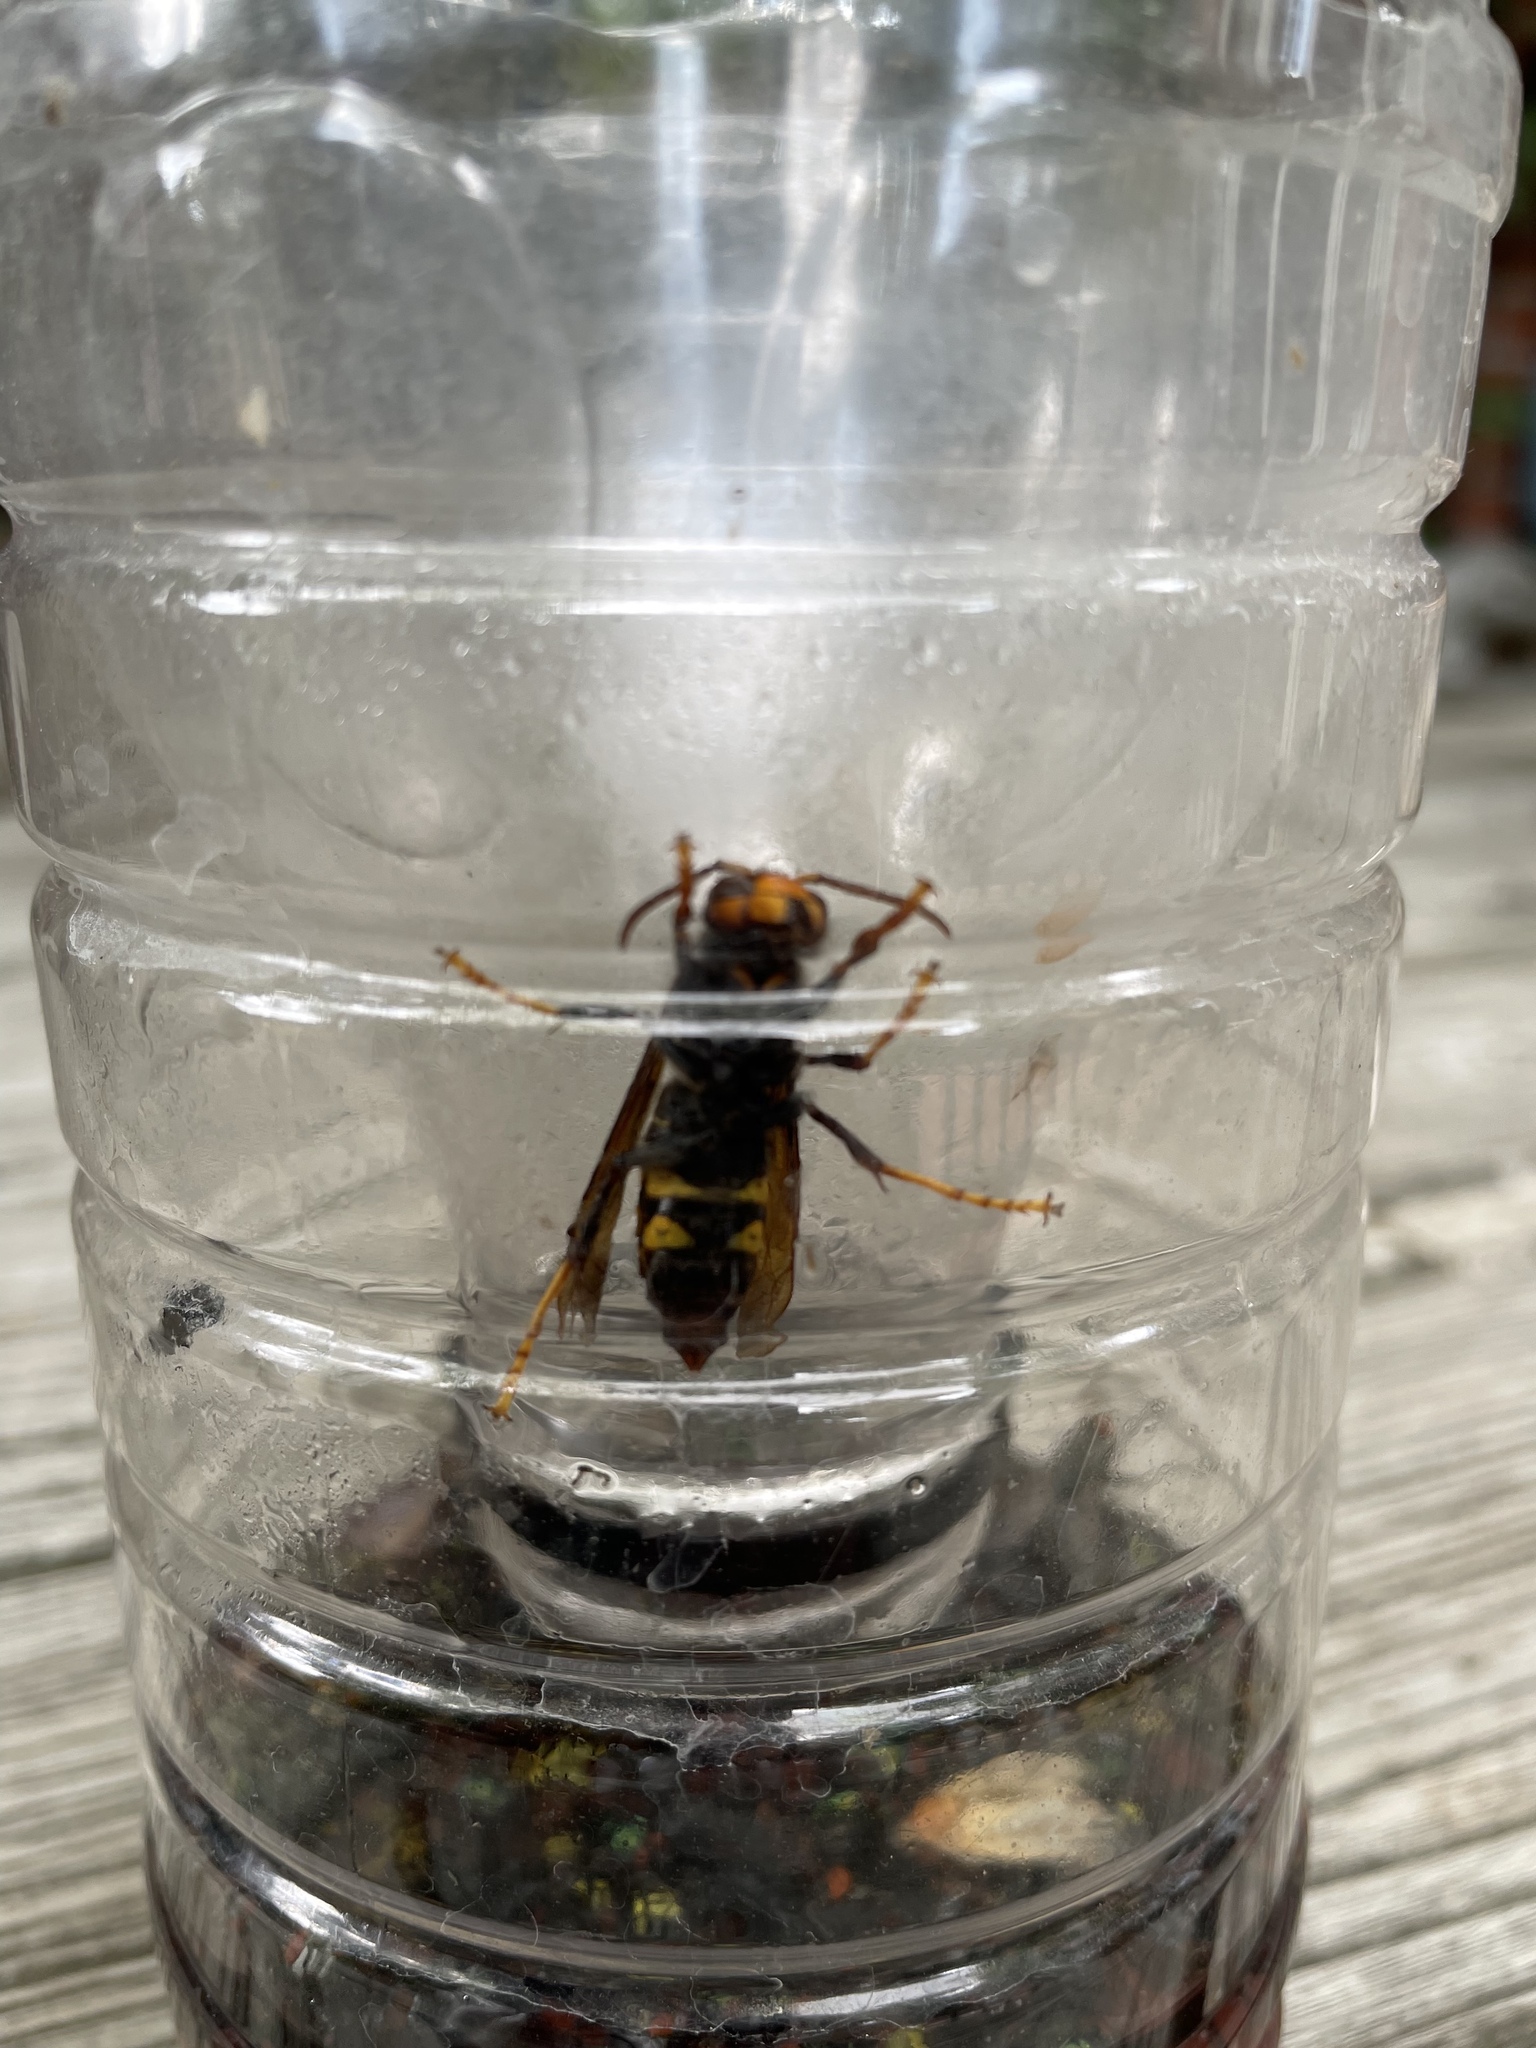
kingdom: Animalia
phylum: Arthropoda
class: Insecta
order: Hymenoptera
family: Vespidae
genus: Vespa
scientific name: Vespa velutina
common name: Asian hornet
